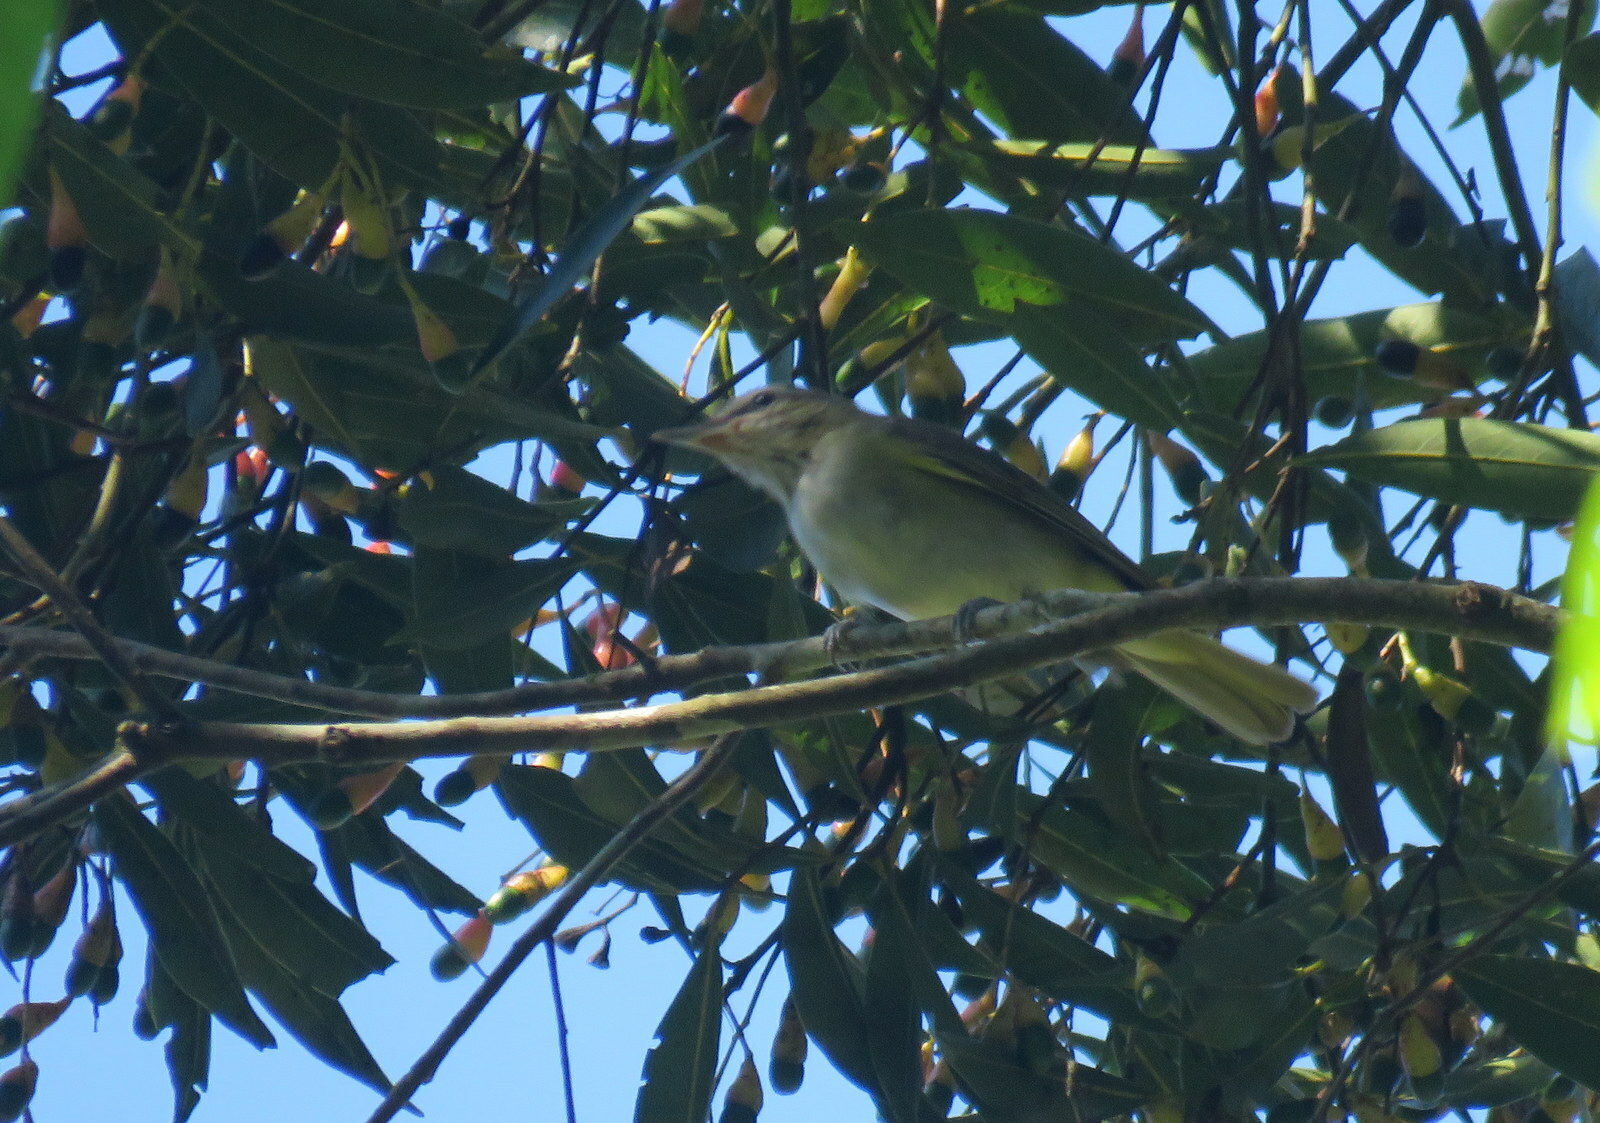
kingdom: Animalia
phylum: Chordata
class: Aves
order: Passeriformes
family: Vireonidae
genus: Vireo
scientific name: Vireo olivaceus
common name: Red-eyed vireo
